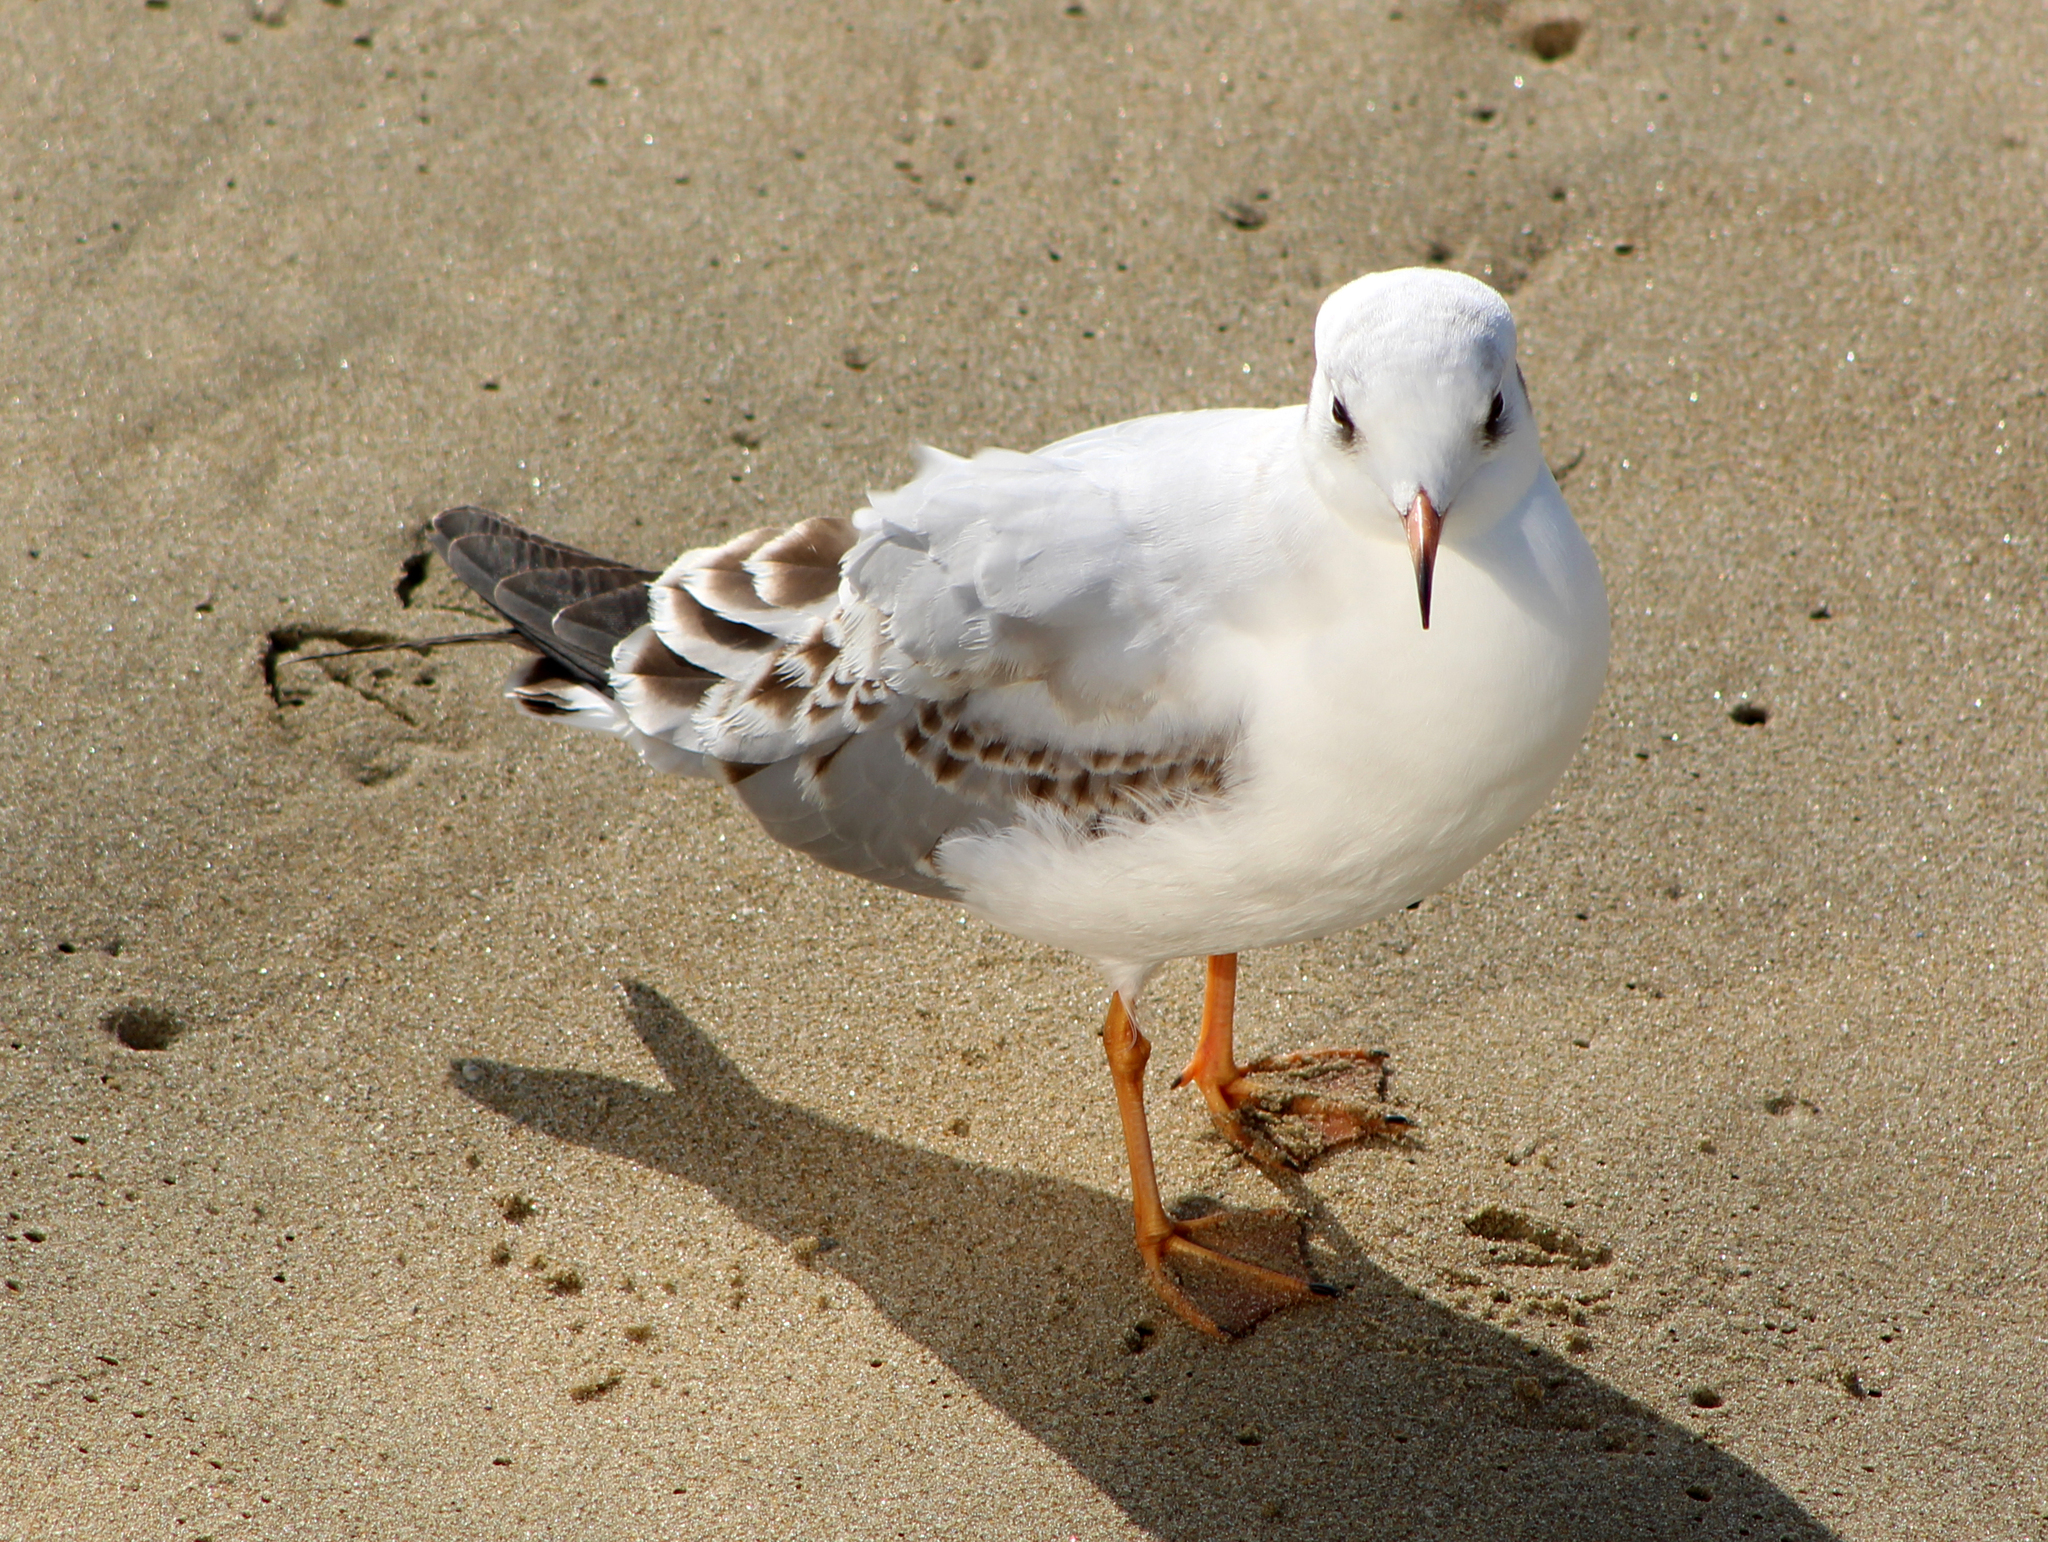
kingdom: Animalia
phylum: Chordata
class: Aves
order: Charadriiformes
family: Laridae
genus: Chroicocephalus
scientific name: Chroicocephalus ridibundus
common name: Black-headed gull
